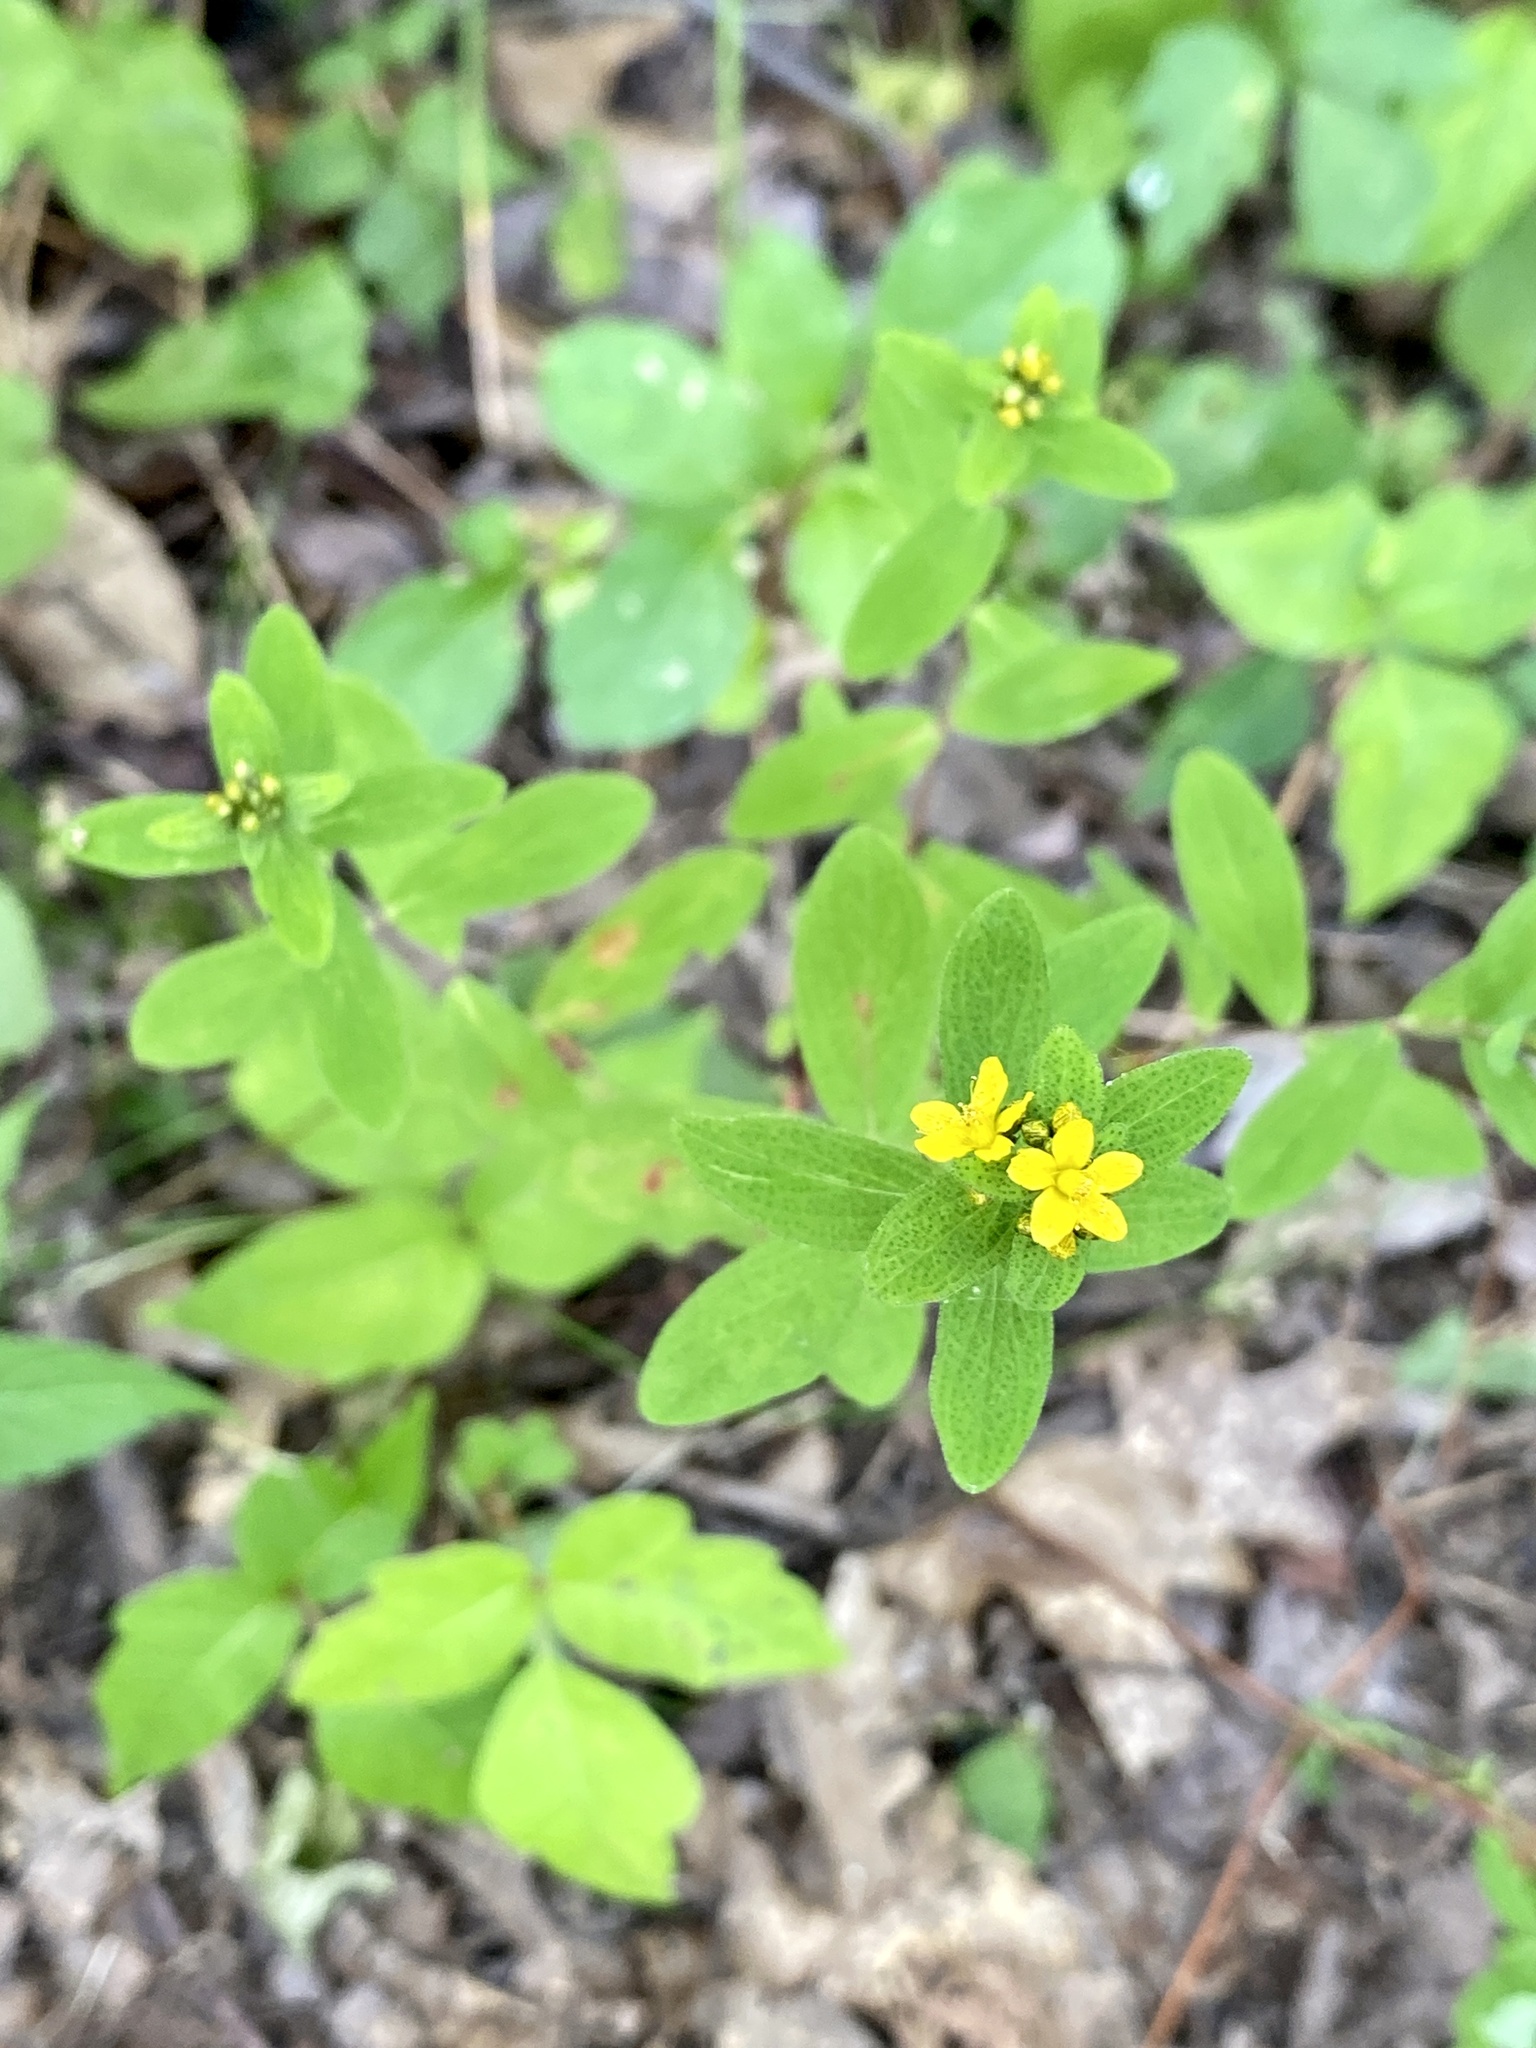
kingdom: Plantae
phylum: Tracheophyta
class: Magnoliopsida
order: Malpighiales
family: Hypericaceae
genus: Hypericum
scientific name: Hypericum punctatum
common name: Spotted st. john's-wort
